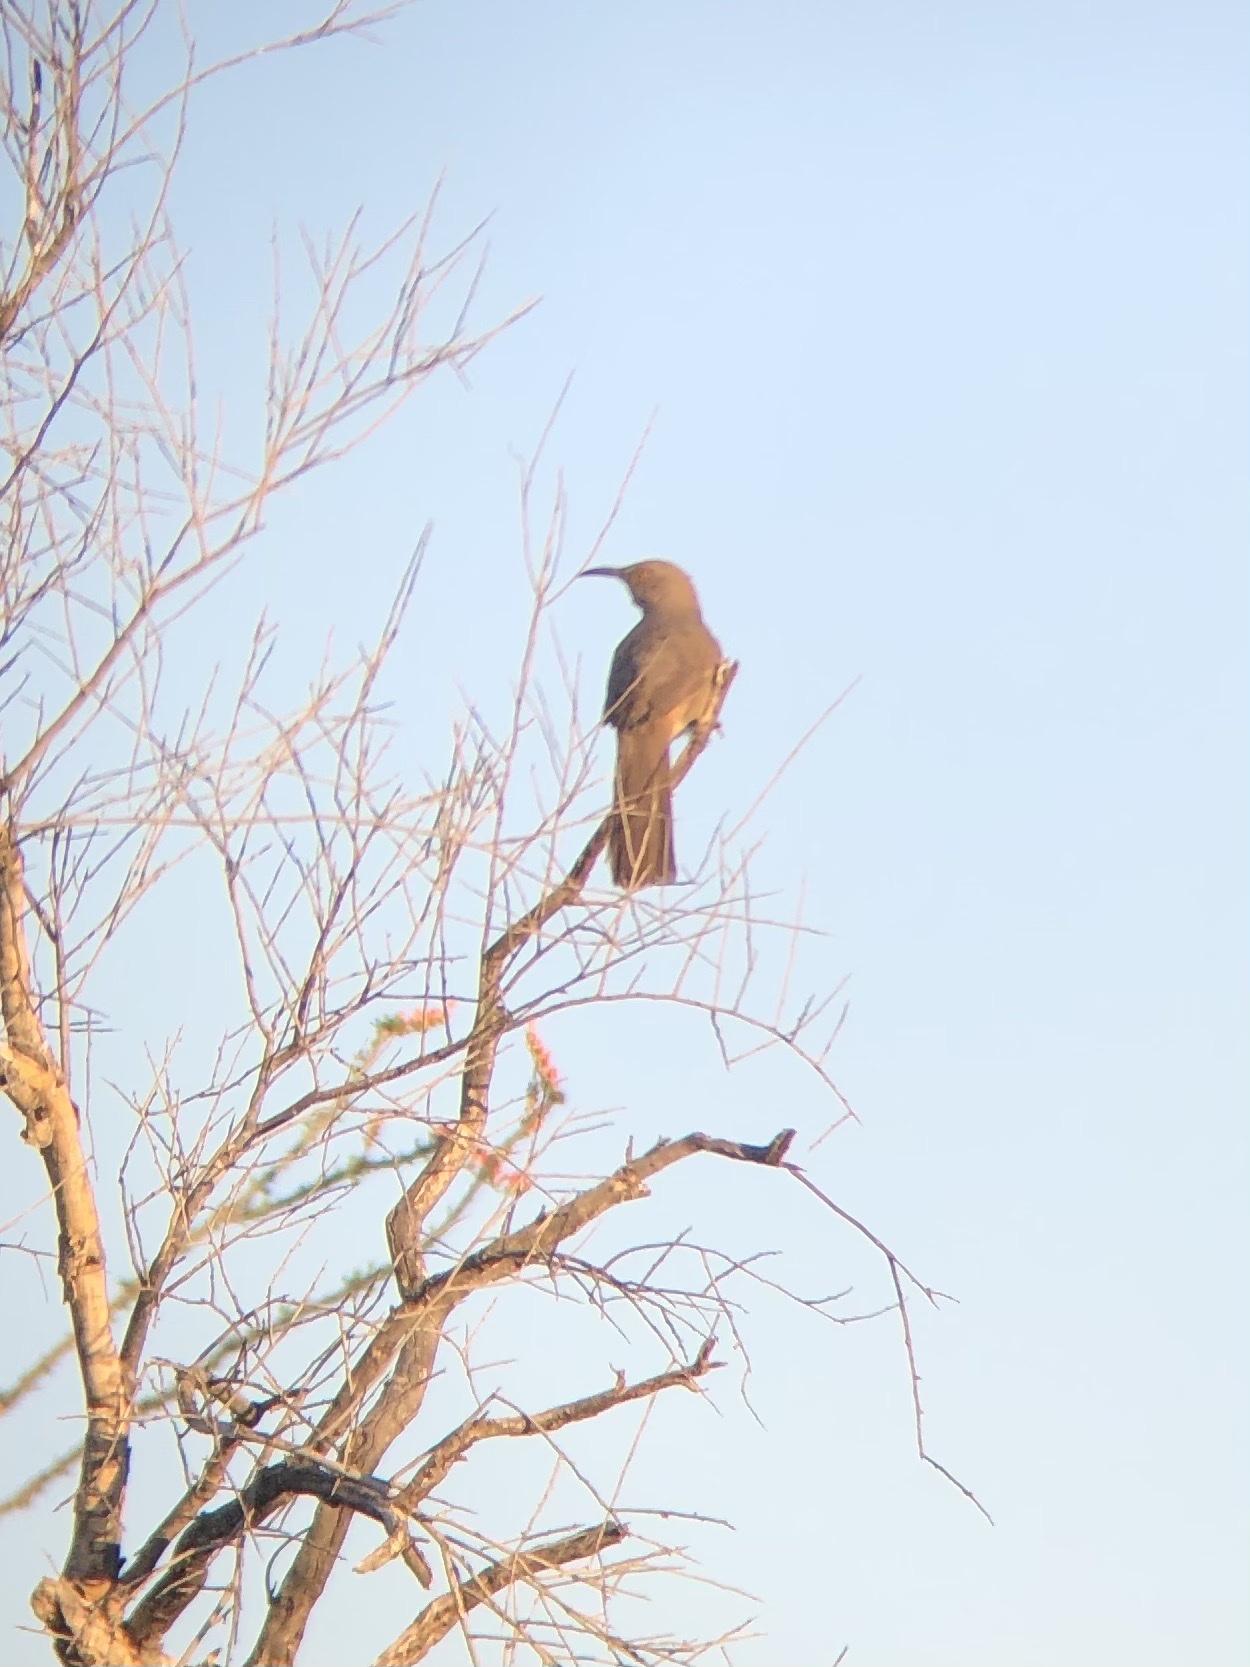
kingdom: Animalia
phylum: Chordata
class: Aves
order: Passeriformes
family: Mimidae
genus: Toxostoma
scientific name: Toxostoma curvirostre
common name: Curve-billed thrasher
